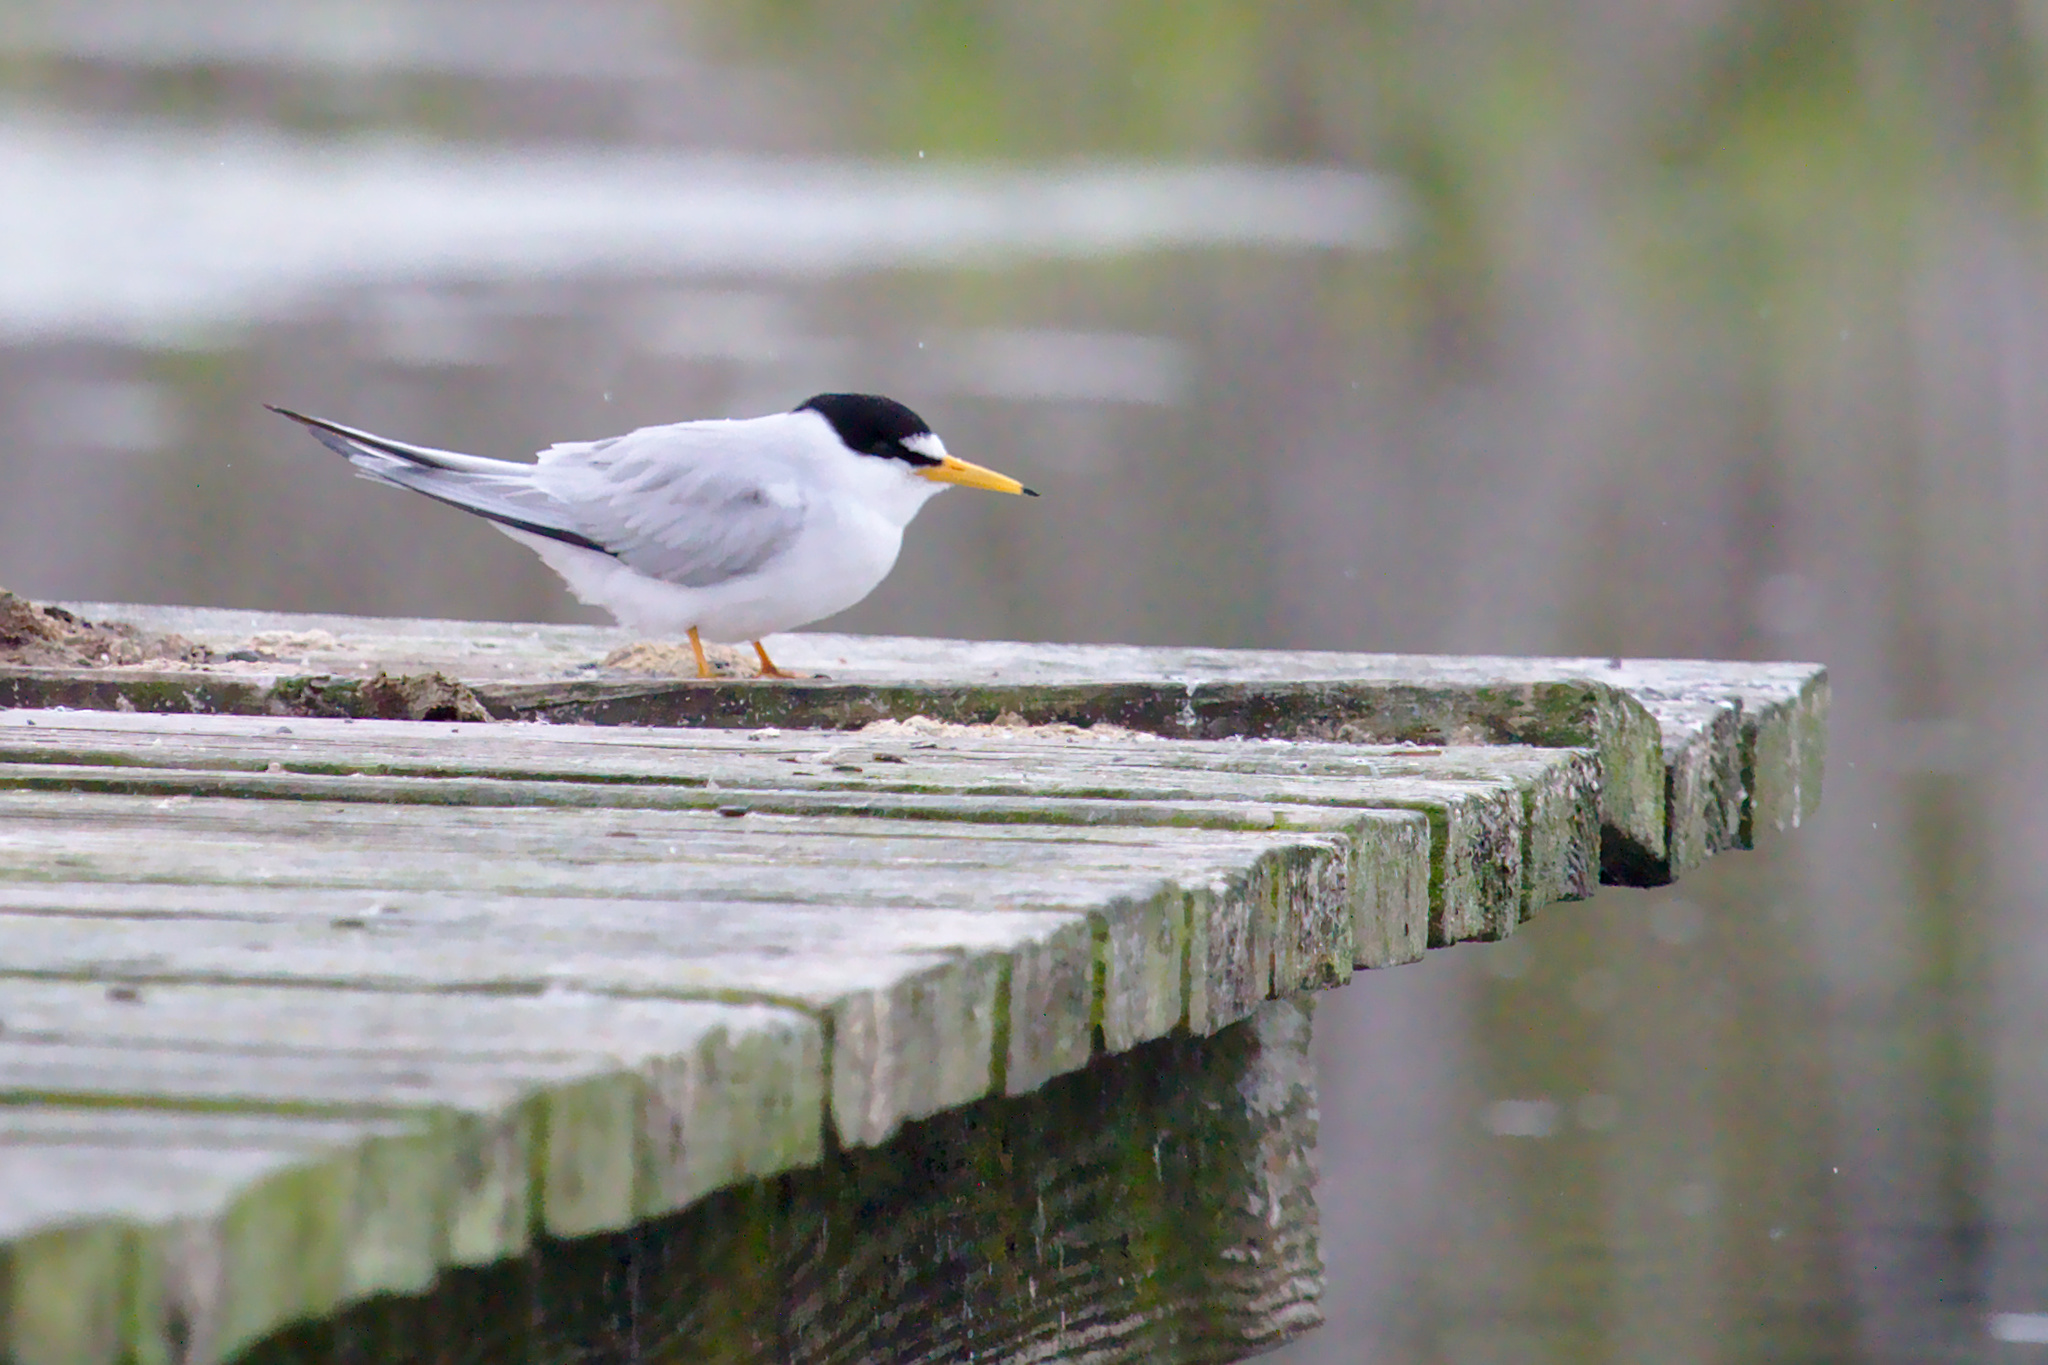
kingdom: Animalia
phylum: Chordata
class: Aves
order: Charadriiformes
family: Laridae
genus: Sternula
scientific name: Sternula antillarum
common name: Least tern
